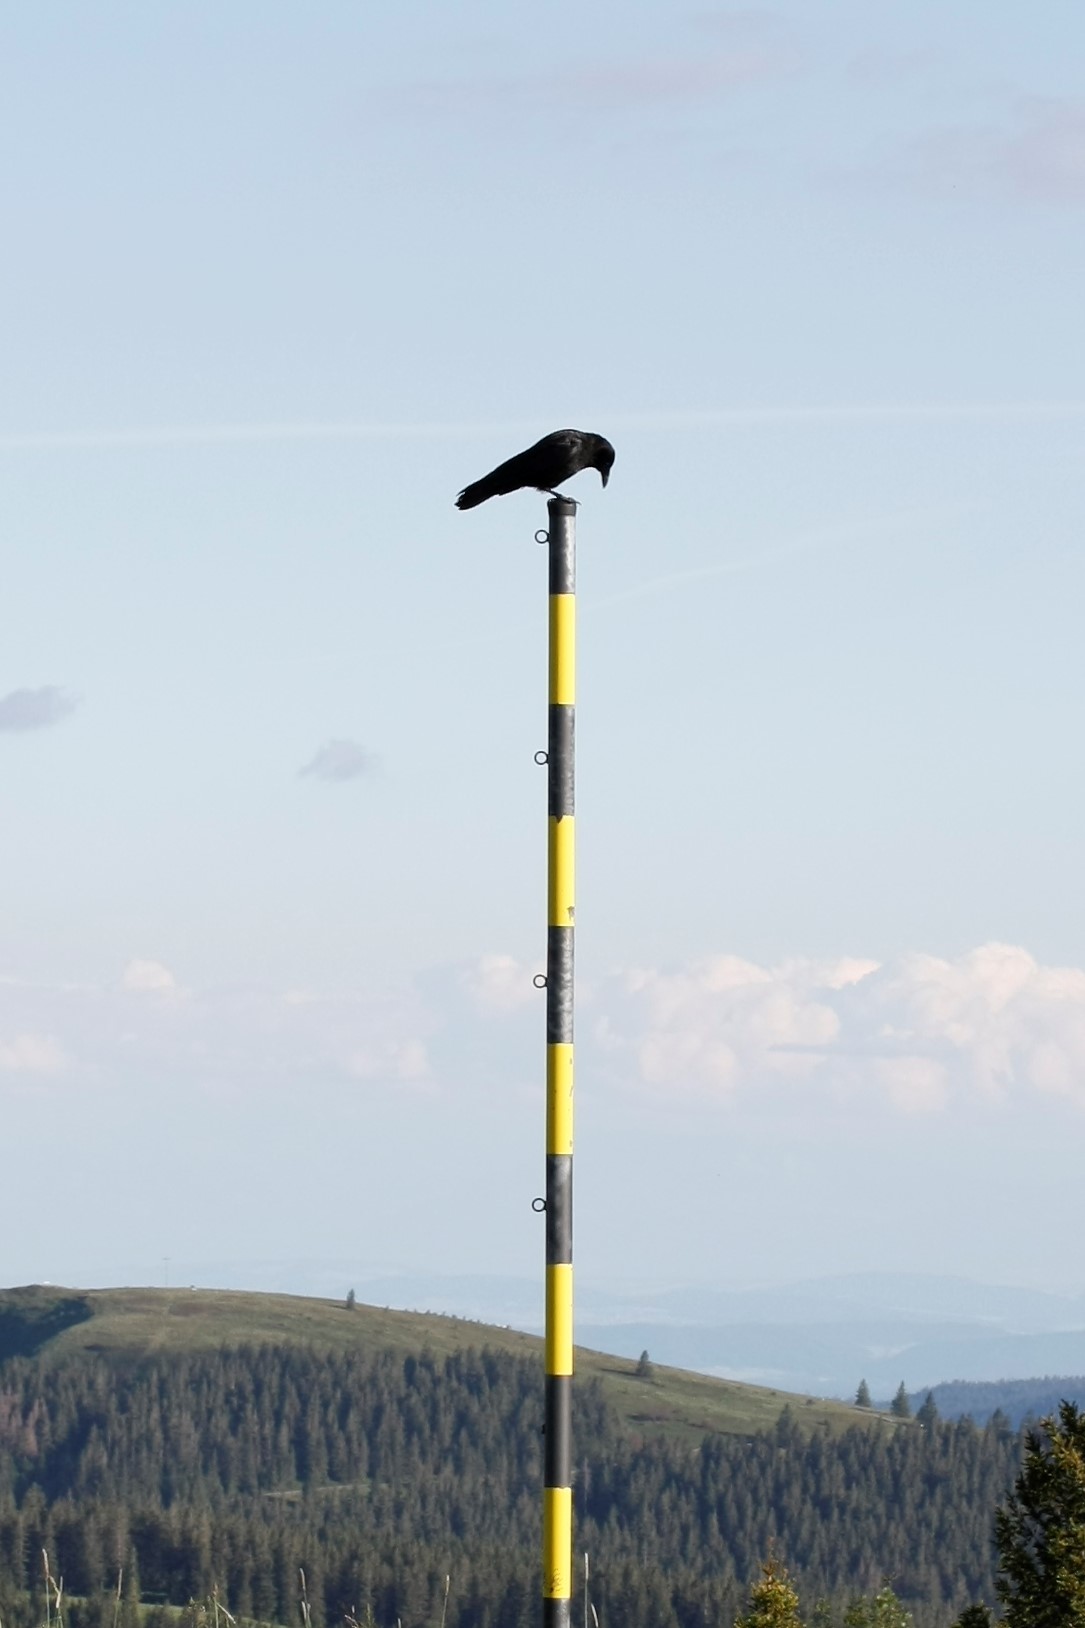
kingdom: Animalia
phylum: Chordata
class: Aves
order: Passeriformes
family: Corvidae
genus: Corvus
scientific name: Corvus corone
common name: Carrion crow
